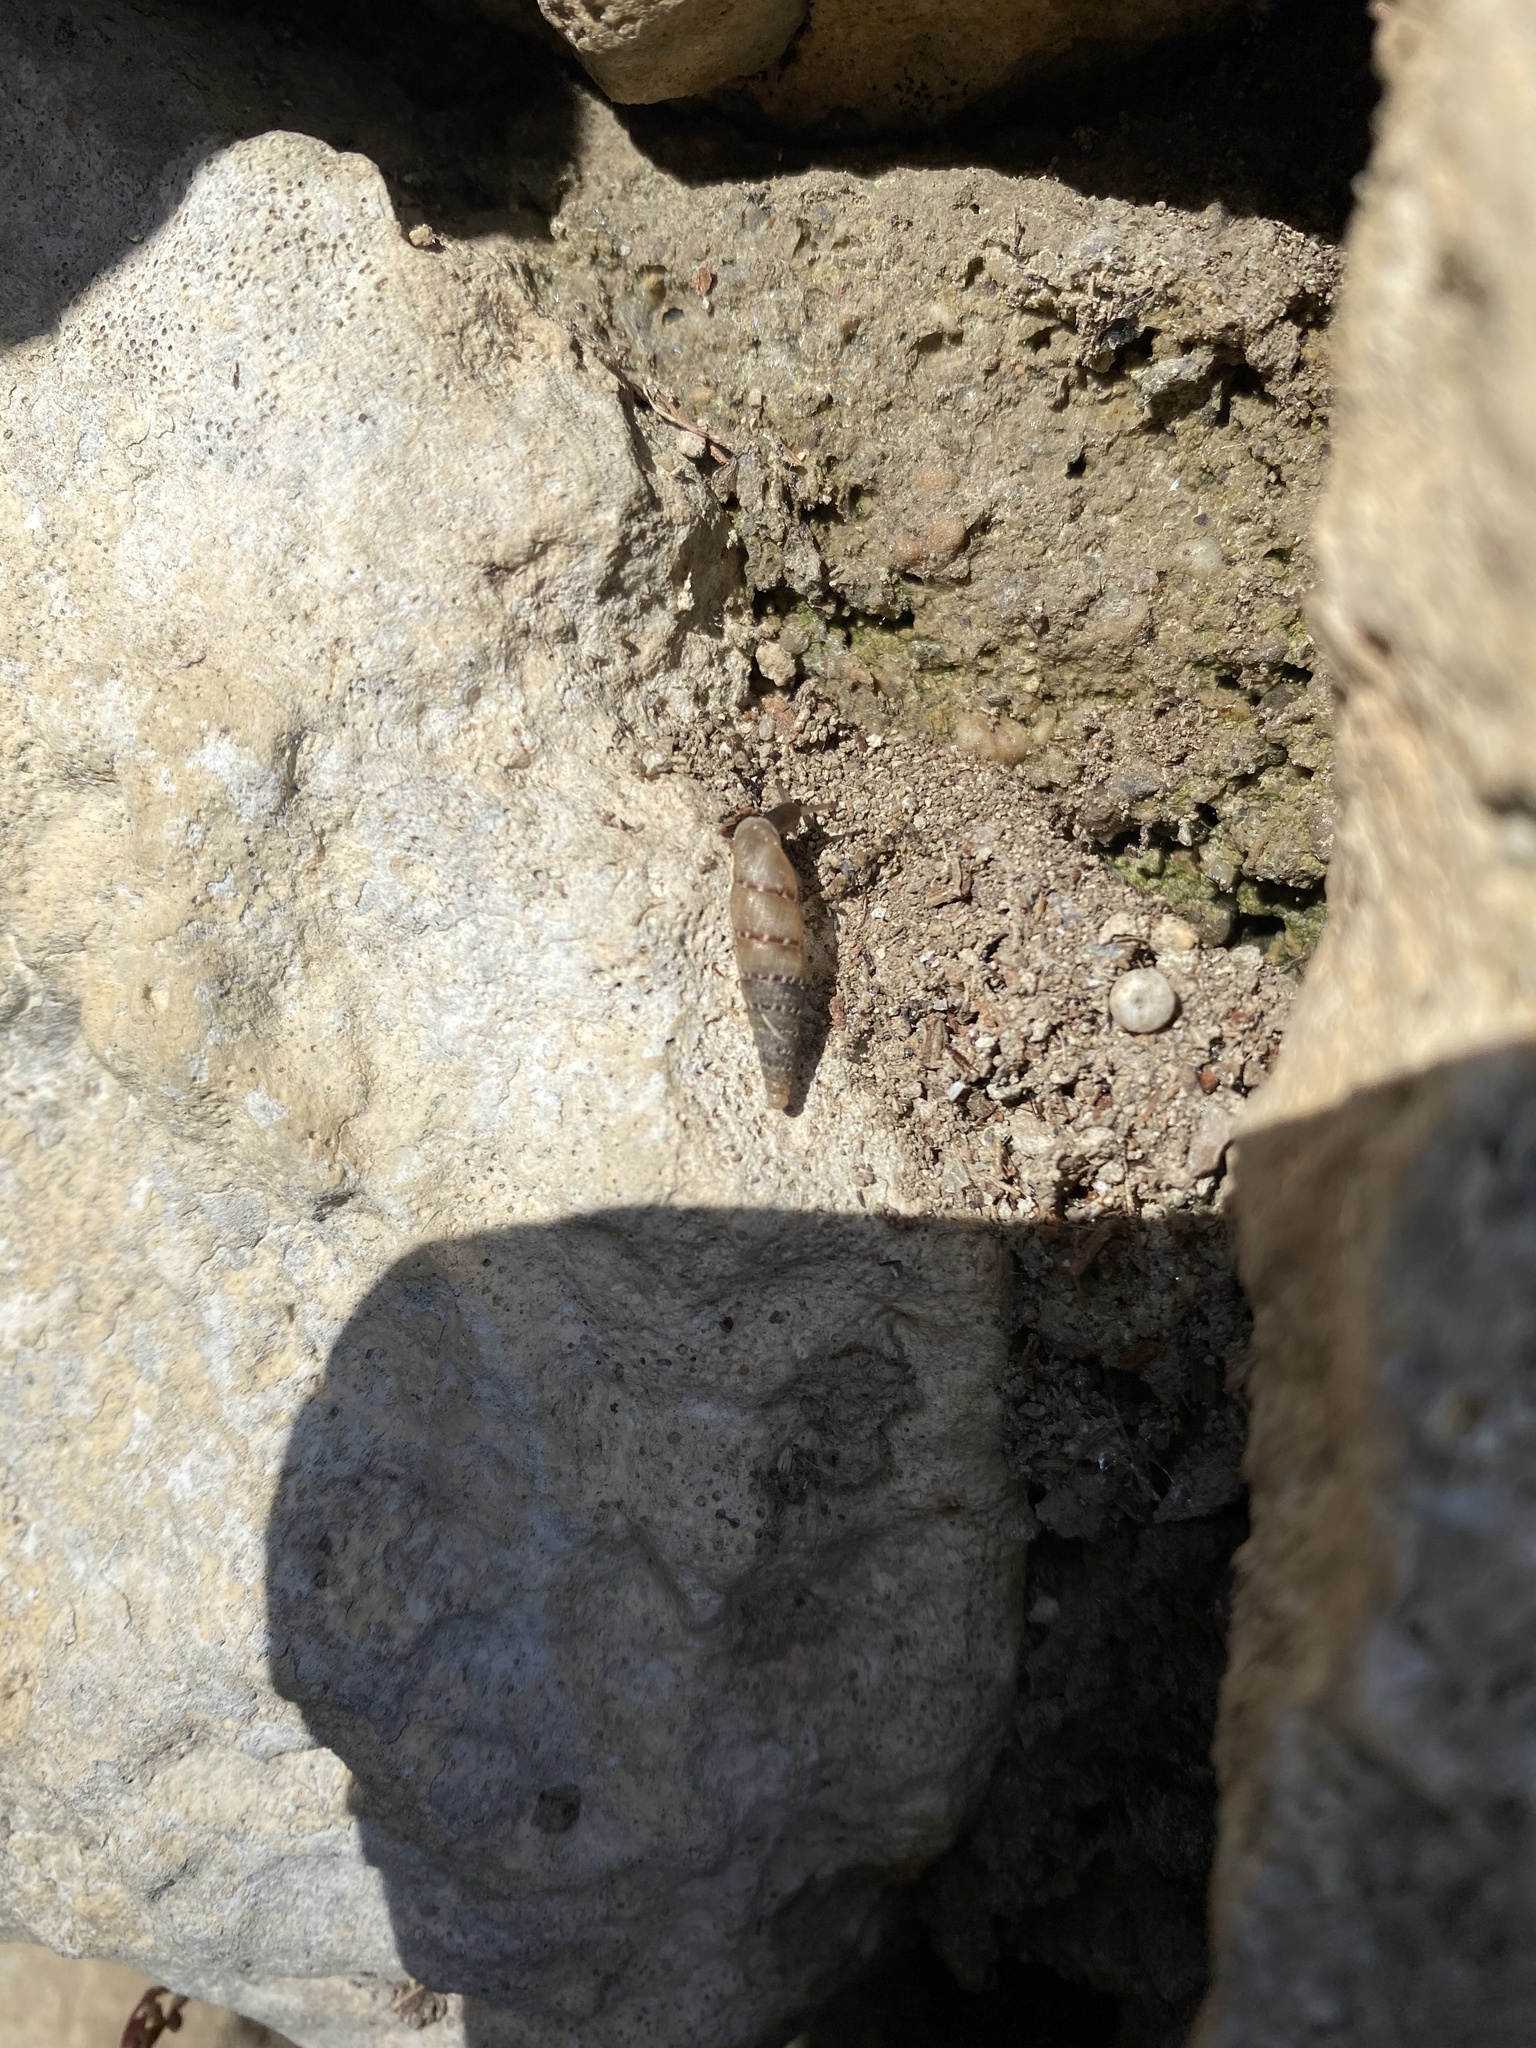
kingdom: Animalia
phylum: Mollusca
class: Gastropoda
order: Stylommatophora
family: Clausiliidae
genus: Papillifera
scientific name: Papillifera papillaris
